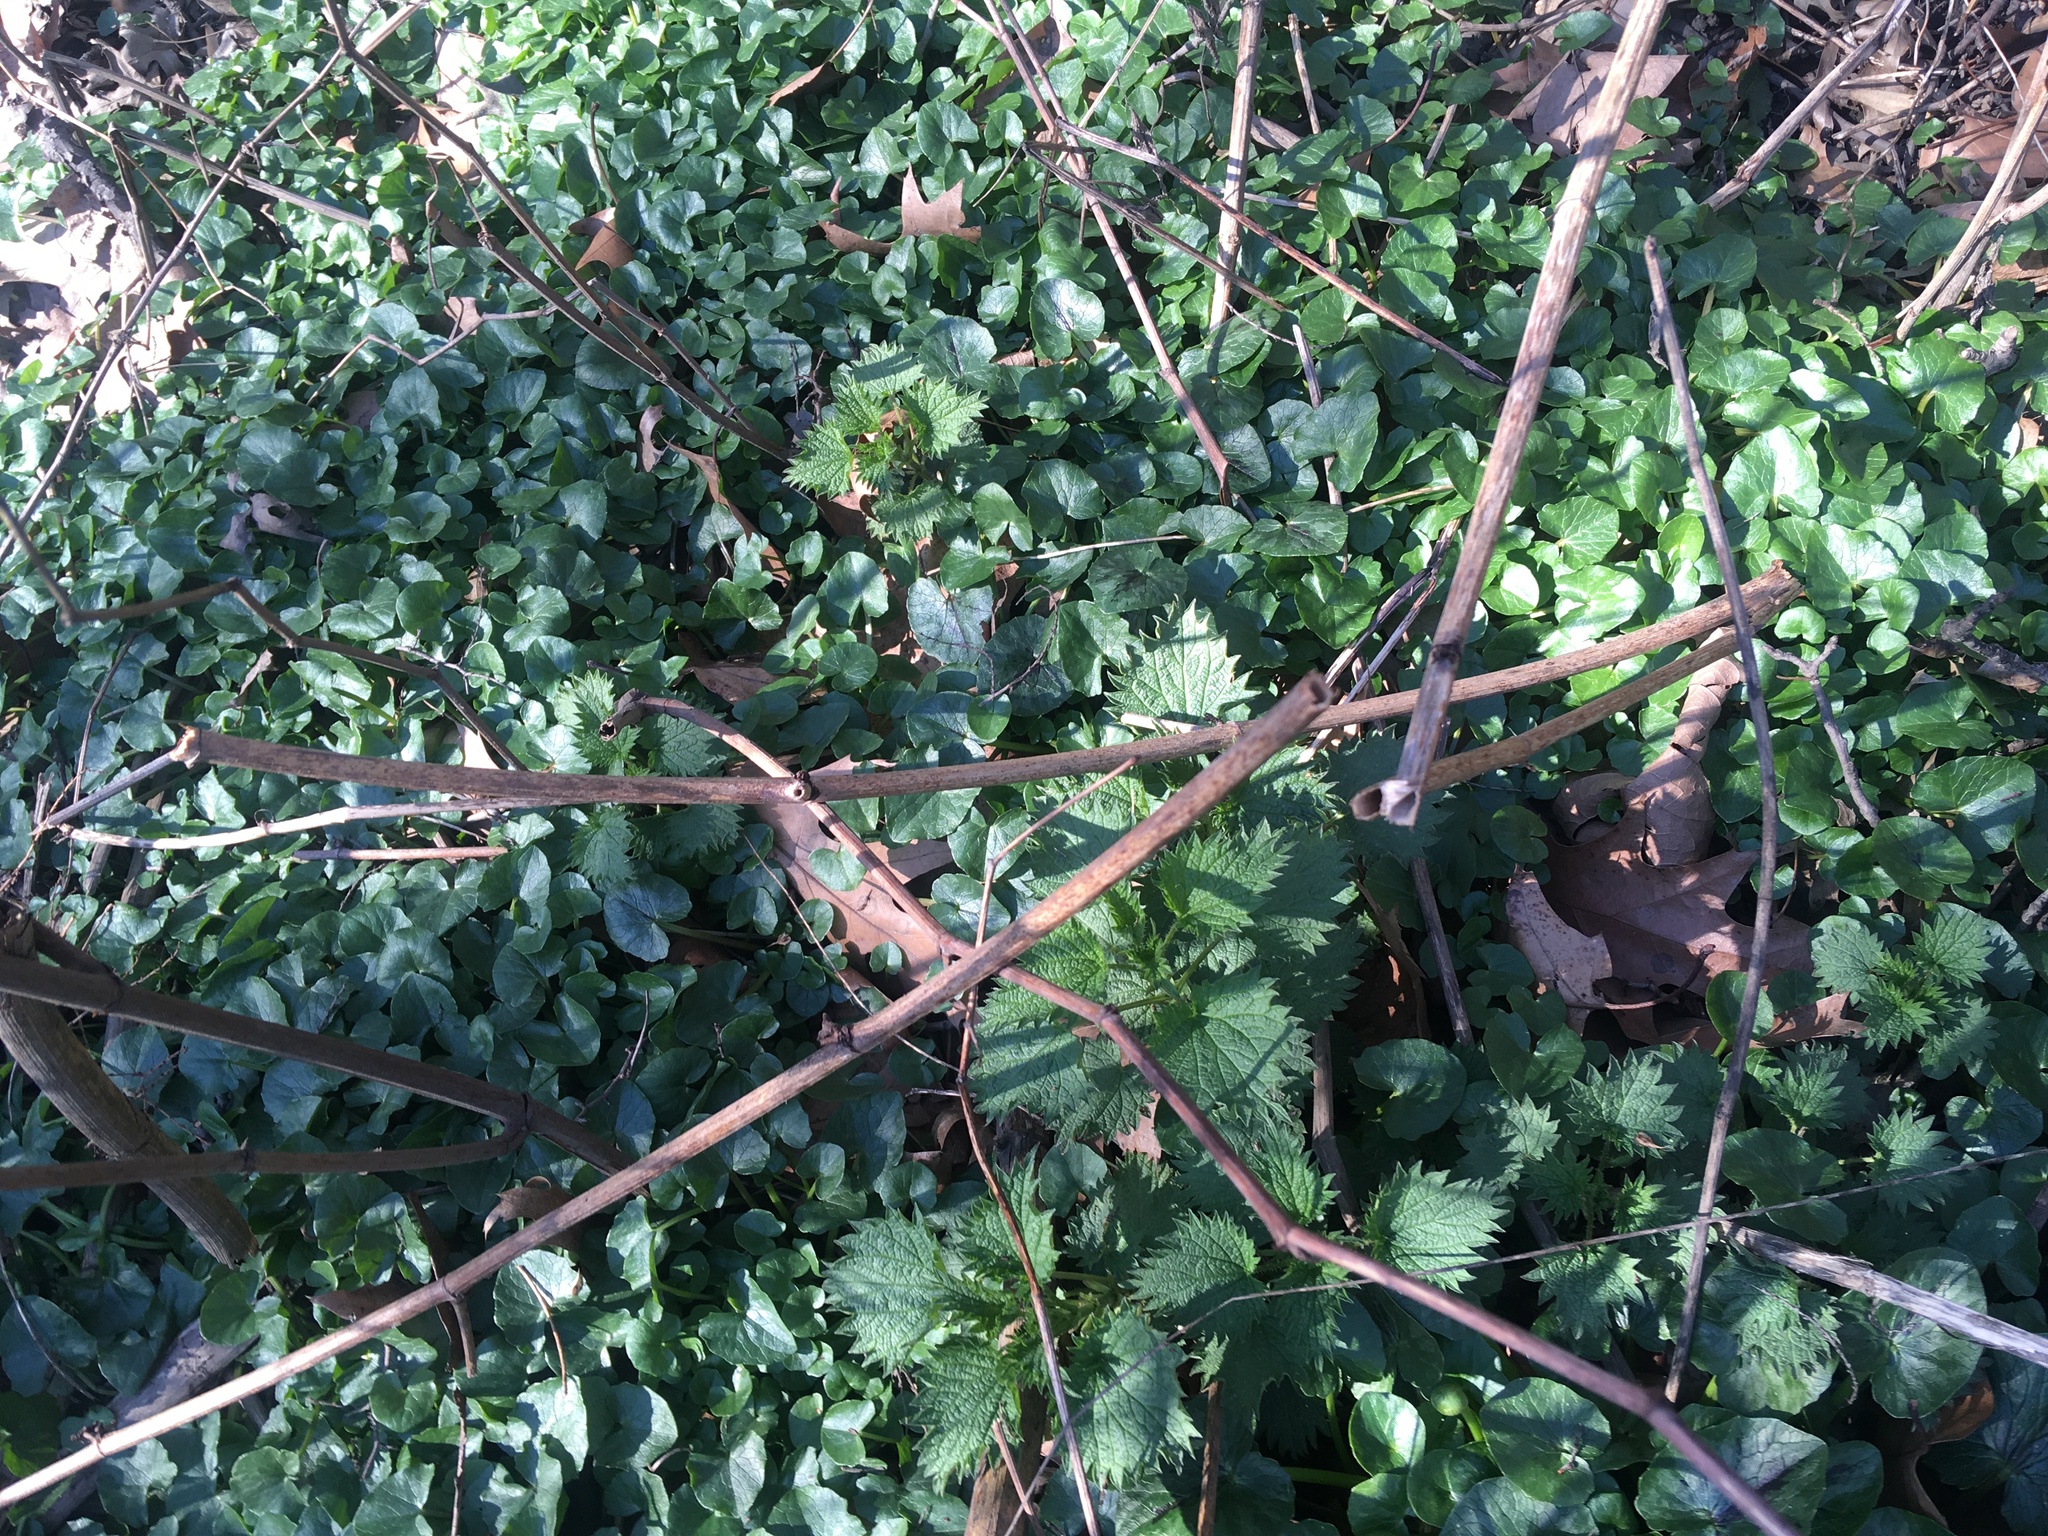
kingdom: Plantae
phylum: Tracheophyta
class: Magnoliopsida
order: Ranunculales
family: Ranunculaceae
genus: Ficaria
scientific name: Ficaria verna
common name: Lesser celandine
